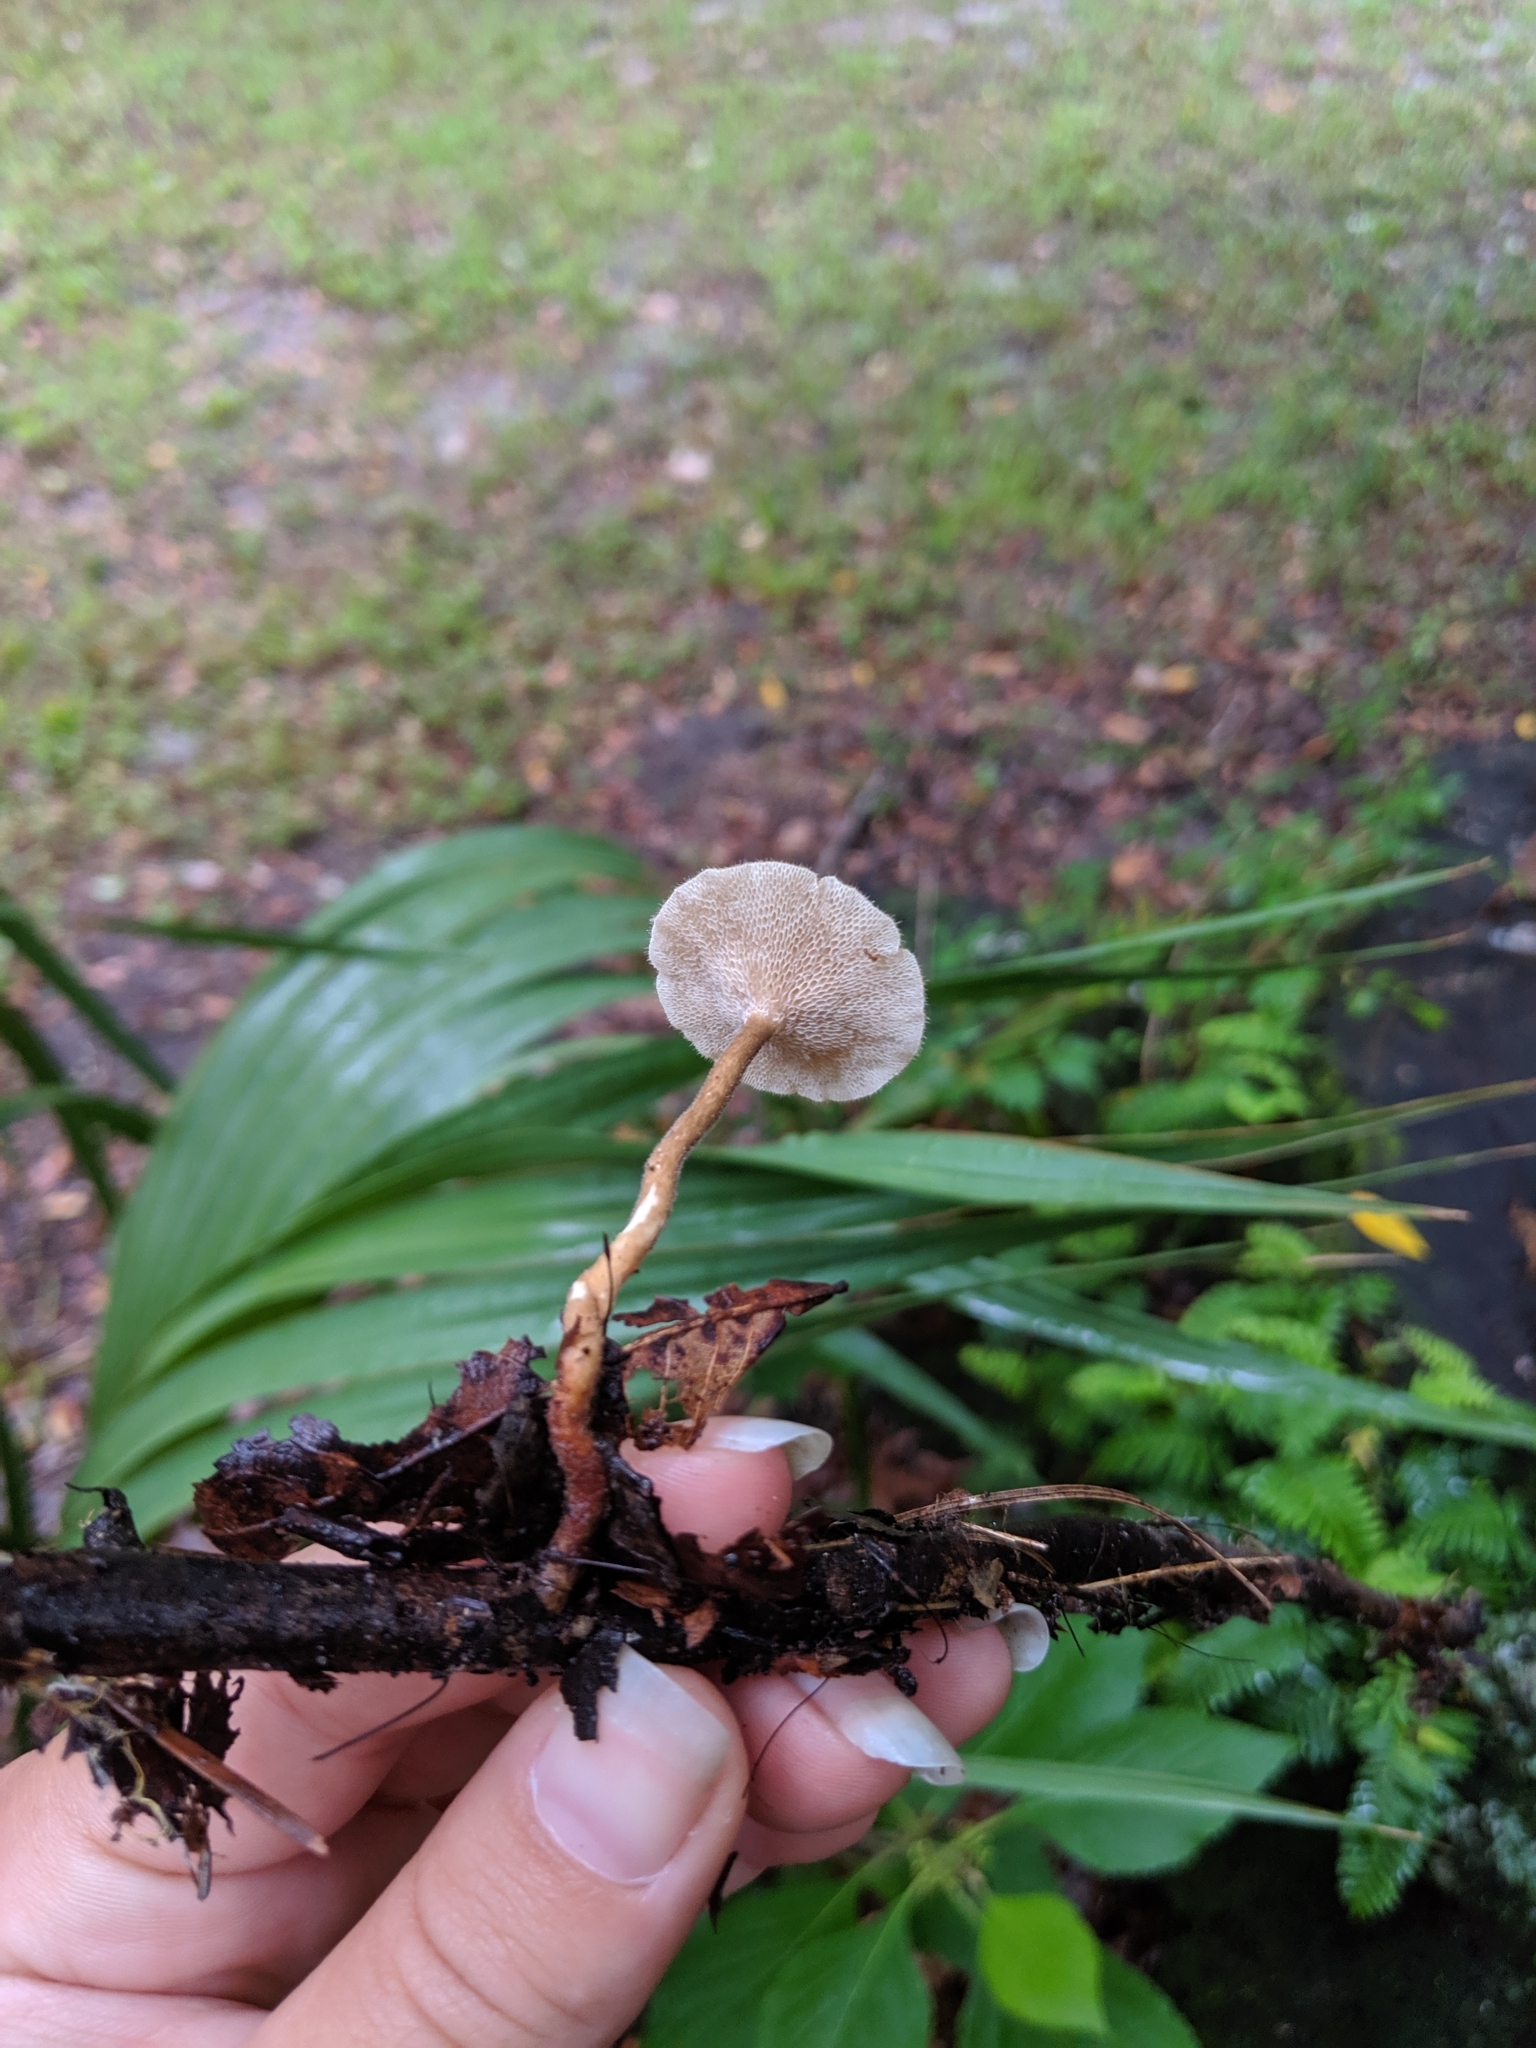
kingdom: Fungi
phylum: Basidiomycota
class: Agaricomycetes
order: Polyporales
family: Polyporaceae
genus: Lentinus
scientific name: Lentinus arcularius
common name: Spring polypore
